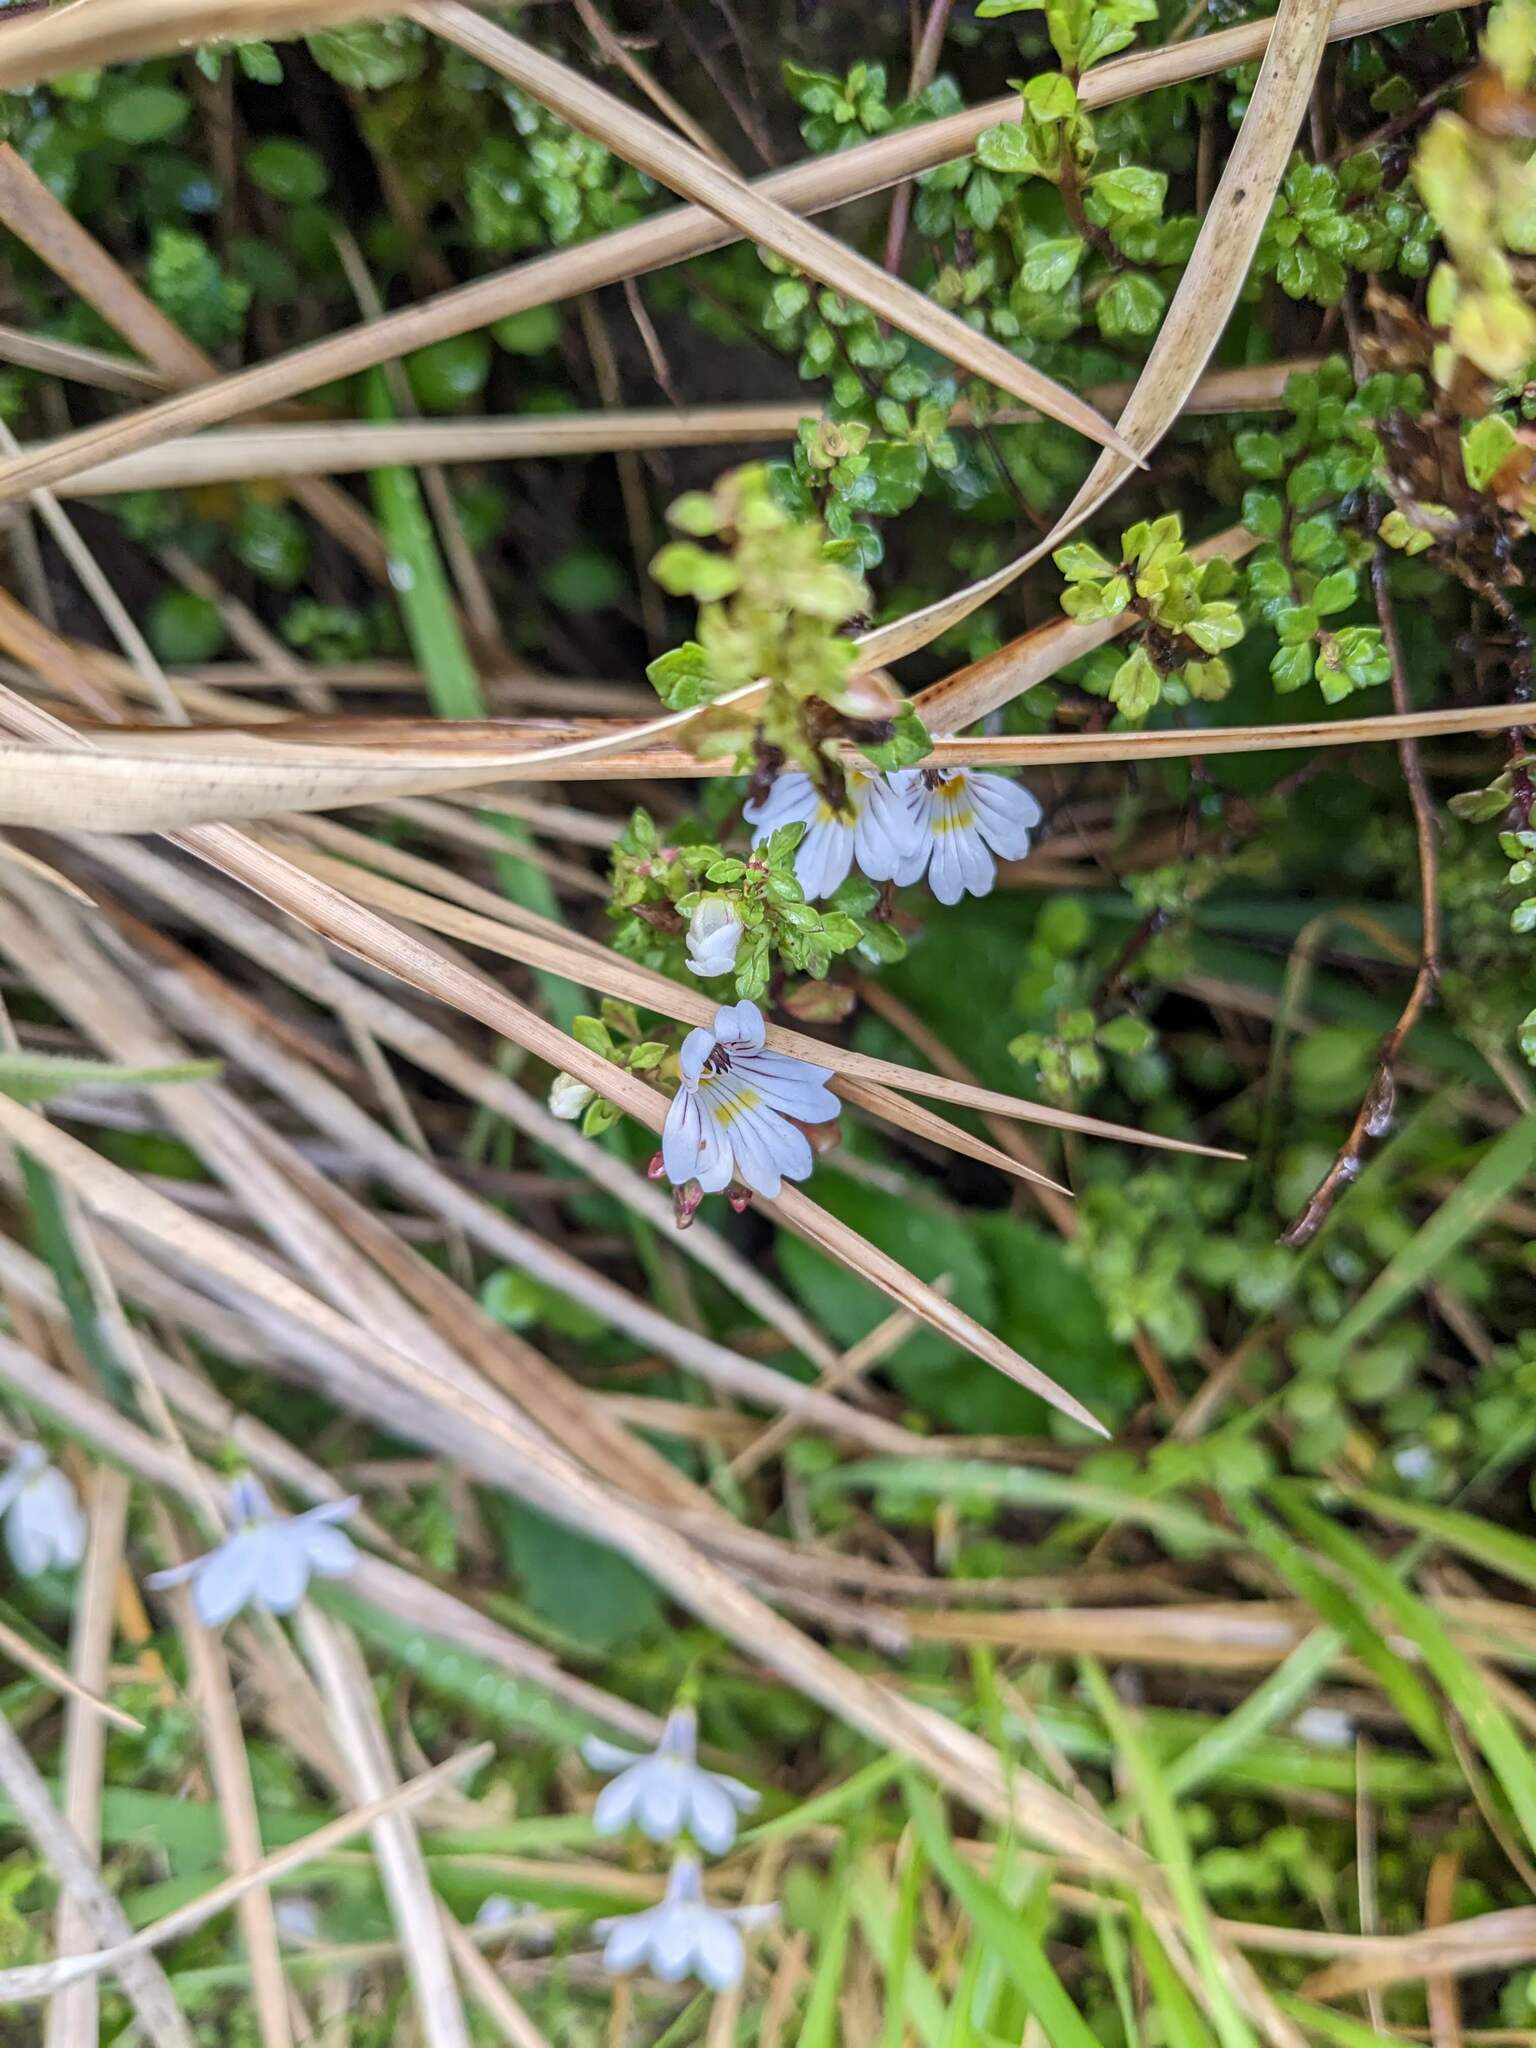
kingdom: Plantae
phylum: Tracheophyta
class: Magnoliopsida
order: Lamiales
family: Orobanchaceae
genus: Euphrasia
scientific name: Euphrasia cuneata
